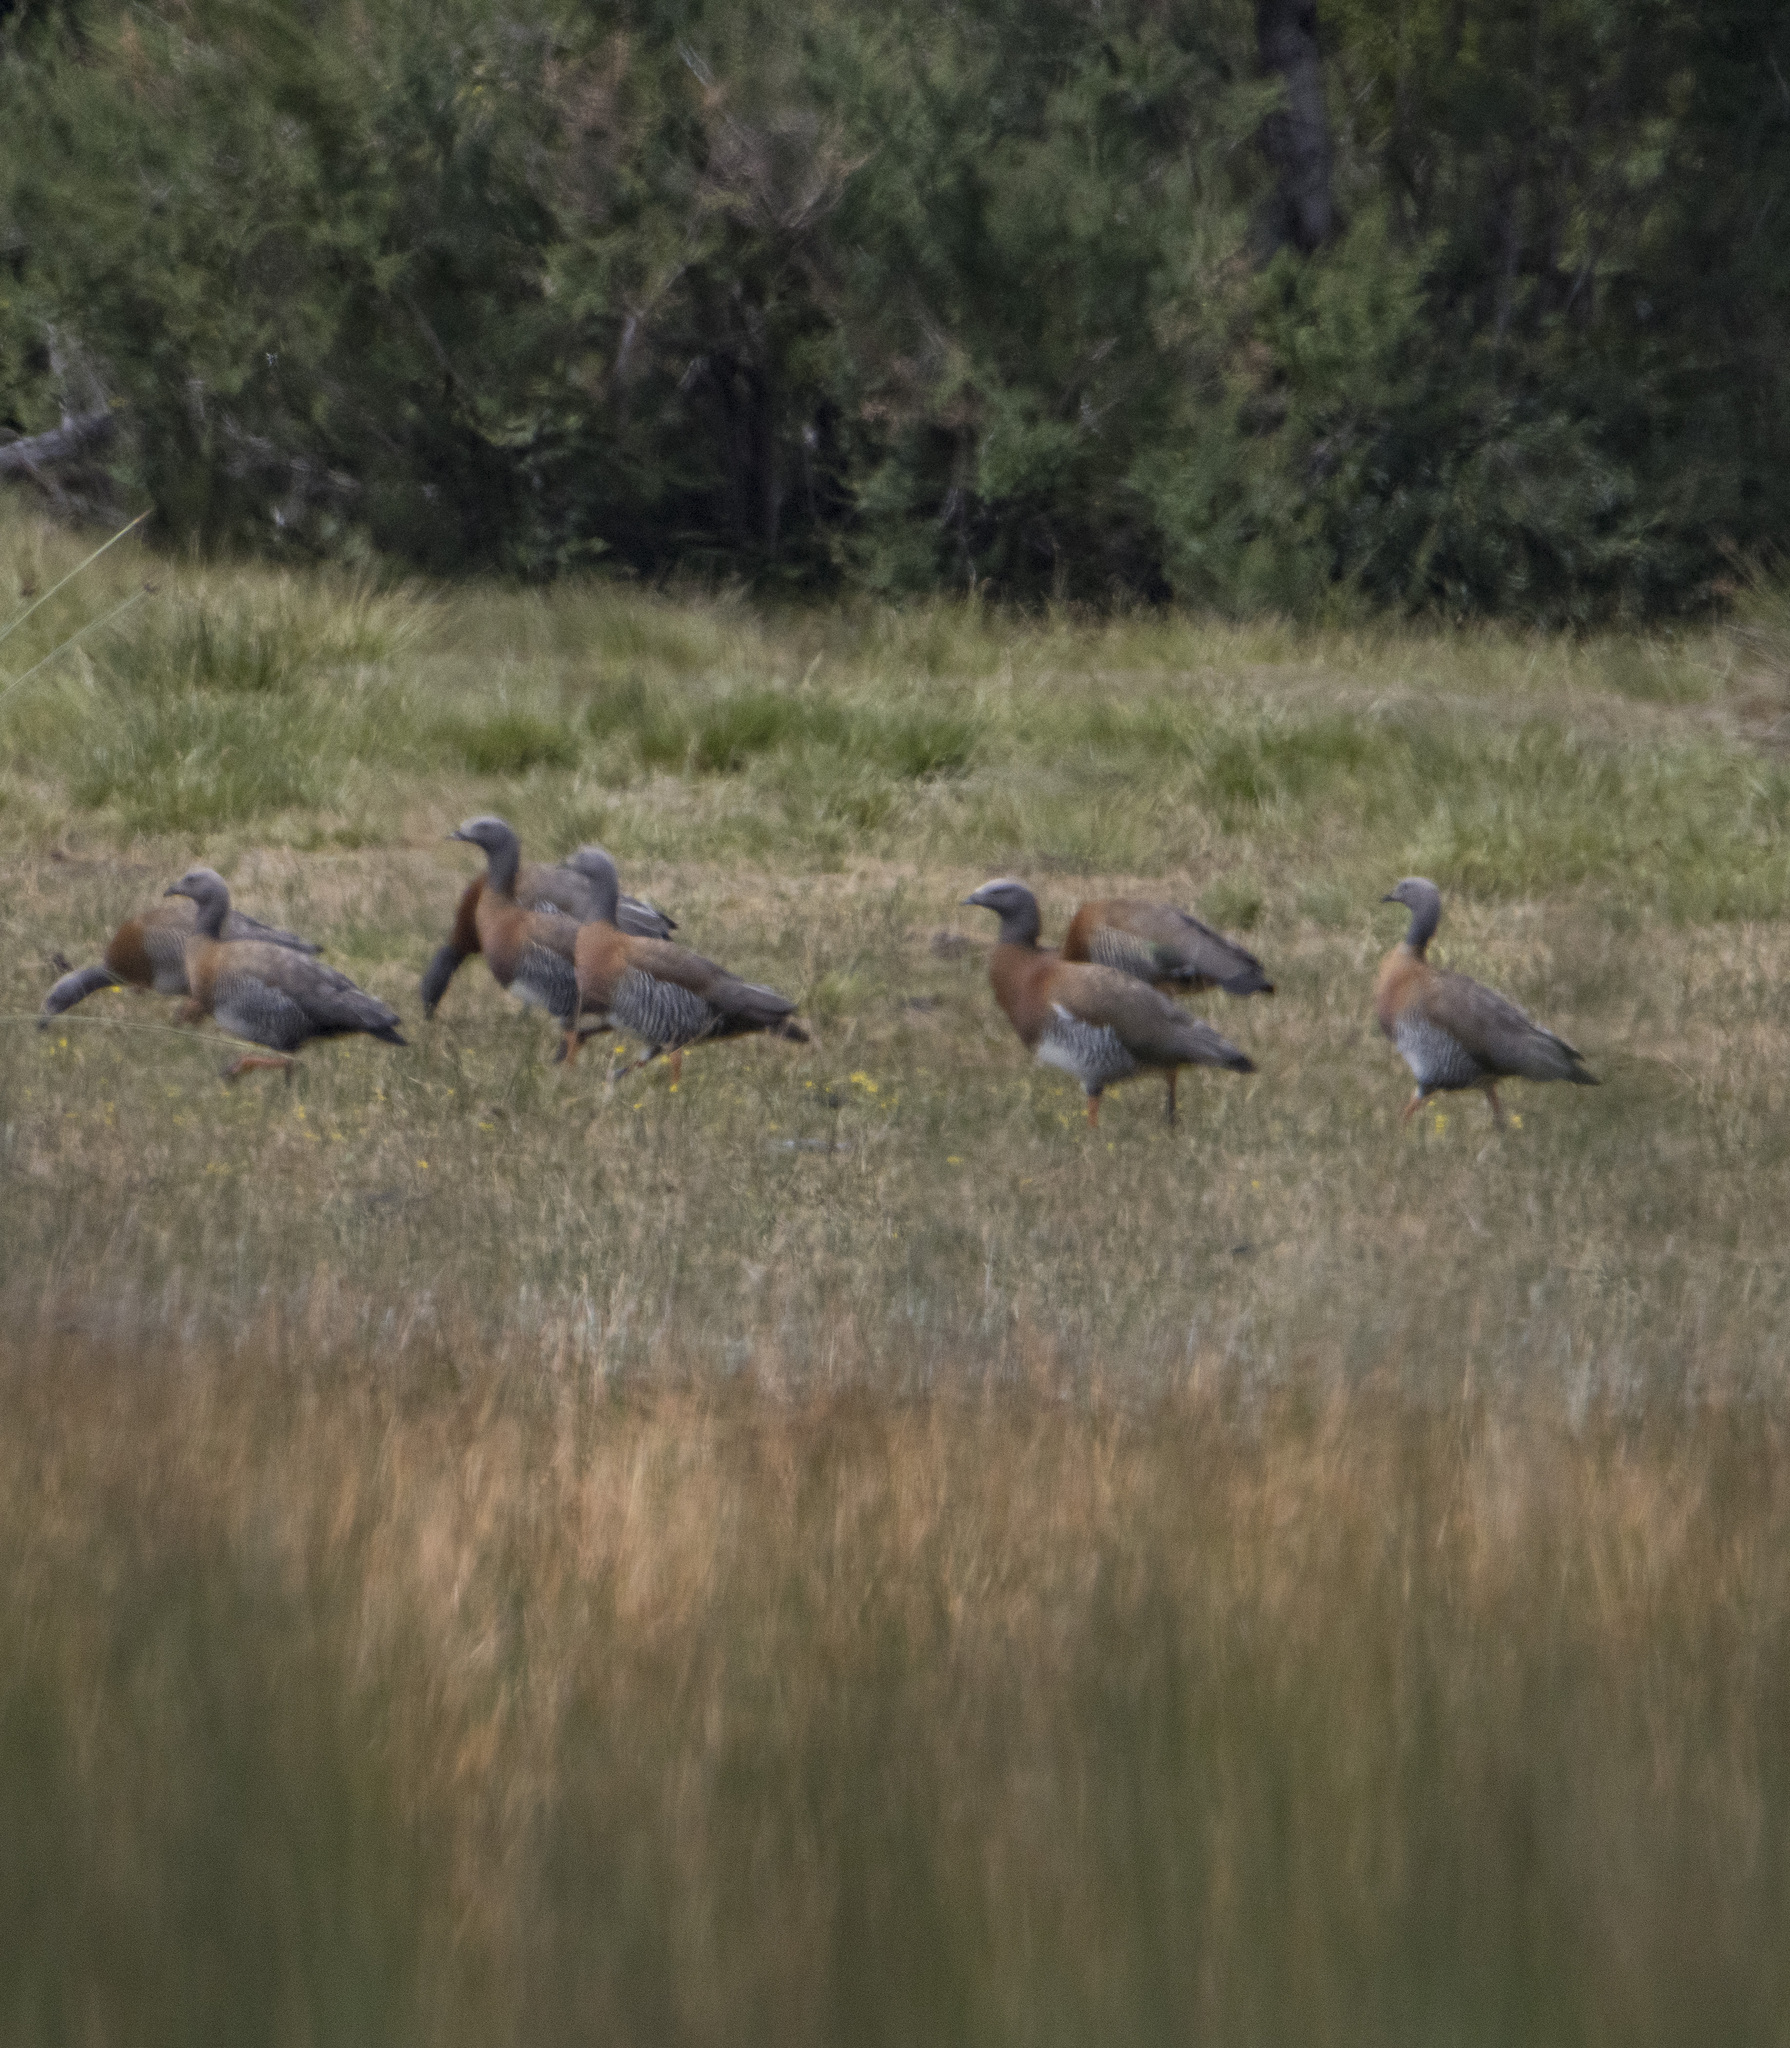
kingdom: Animalia
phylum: Chordata
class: Aves
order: Anseriformes
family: Anatidae
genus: Chloephaga
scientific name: Chloephaga poliocephala
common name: Ashy-headed goose
